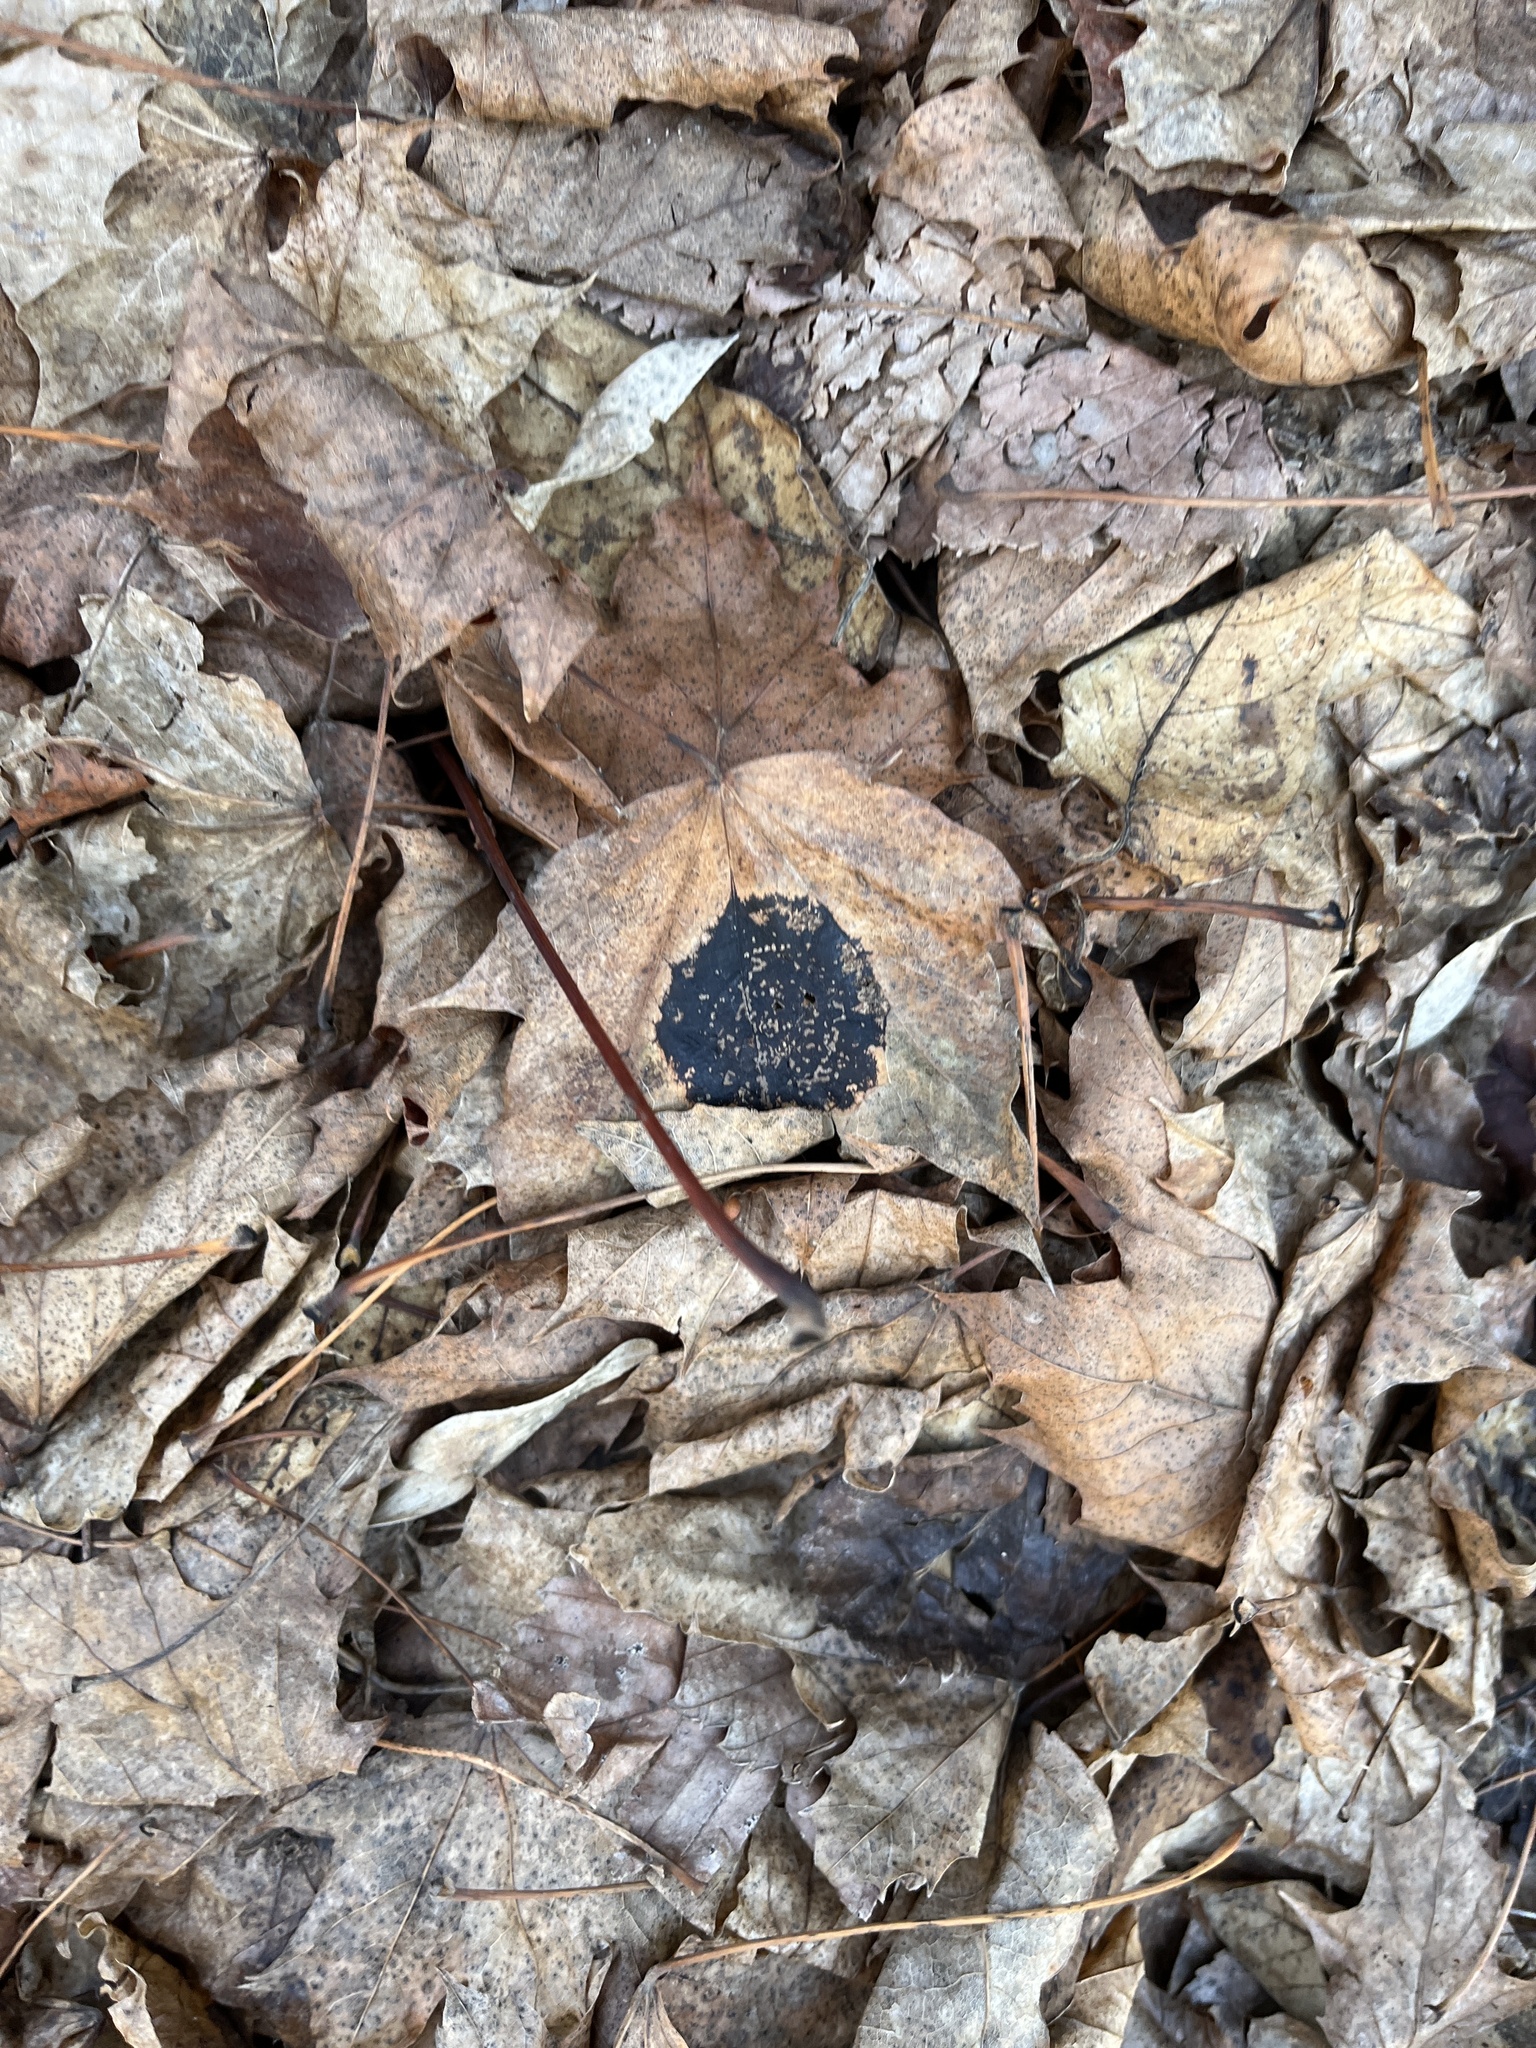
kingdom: Fungi
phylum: Ascomycota
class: Leotiomycetes
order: Rhytismatales
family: Rhytismataceae
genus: Rhytisma
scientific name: Rhytisma acerinum
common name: European tar spot
